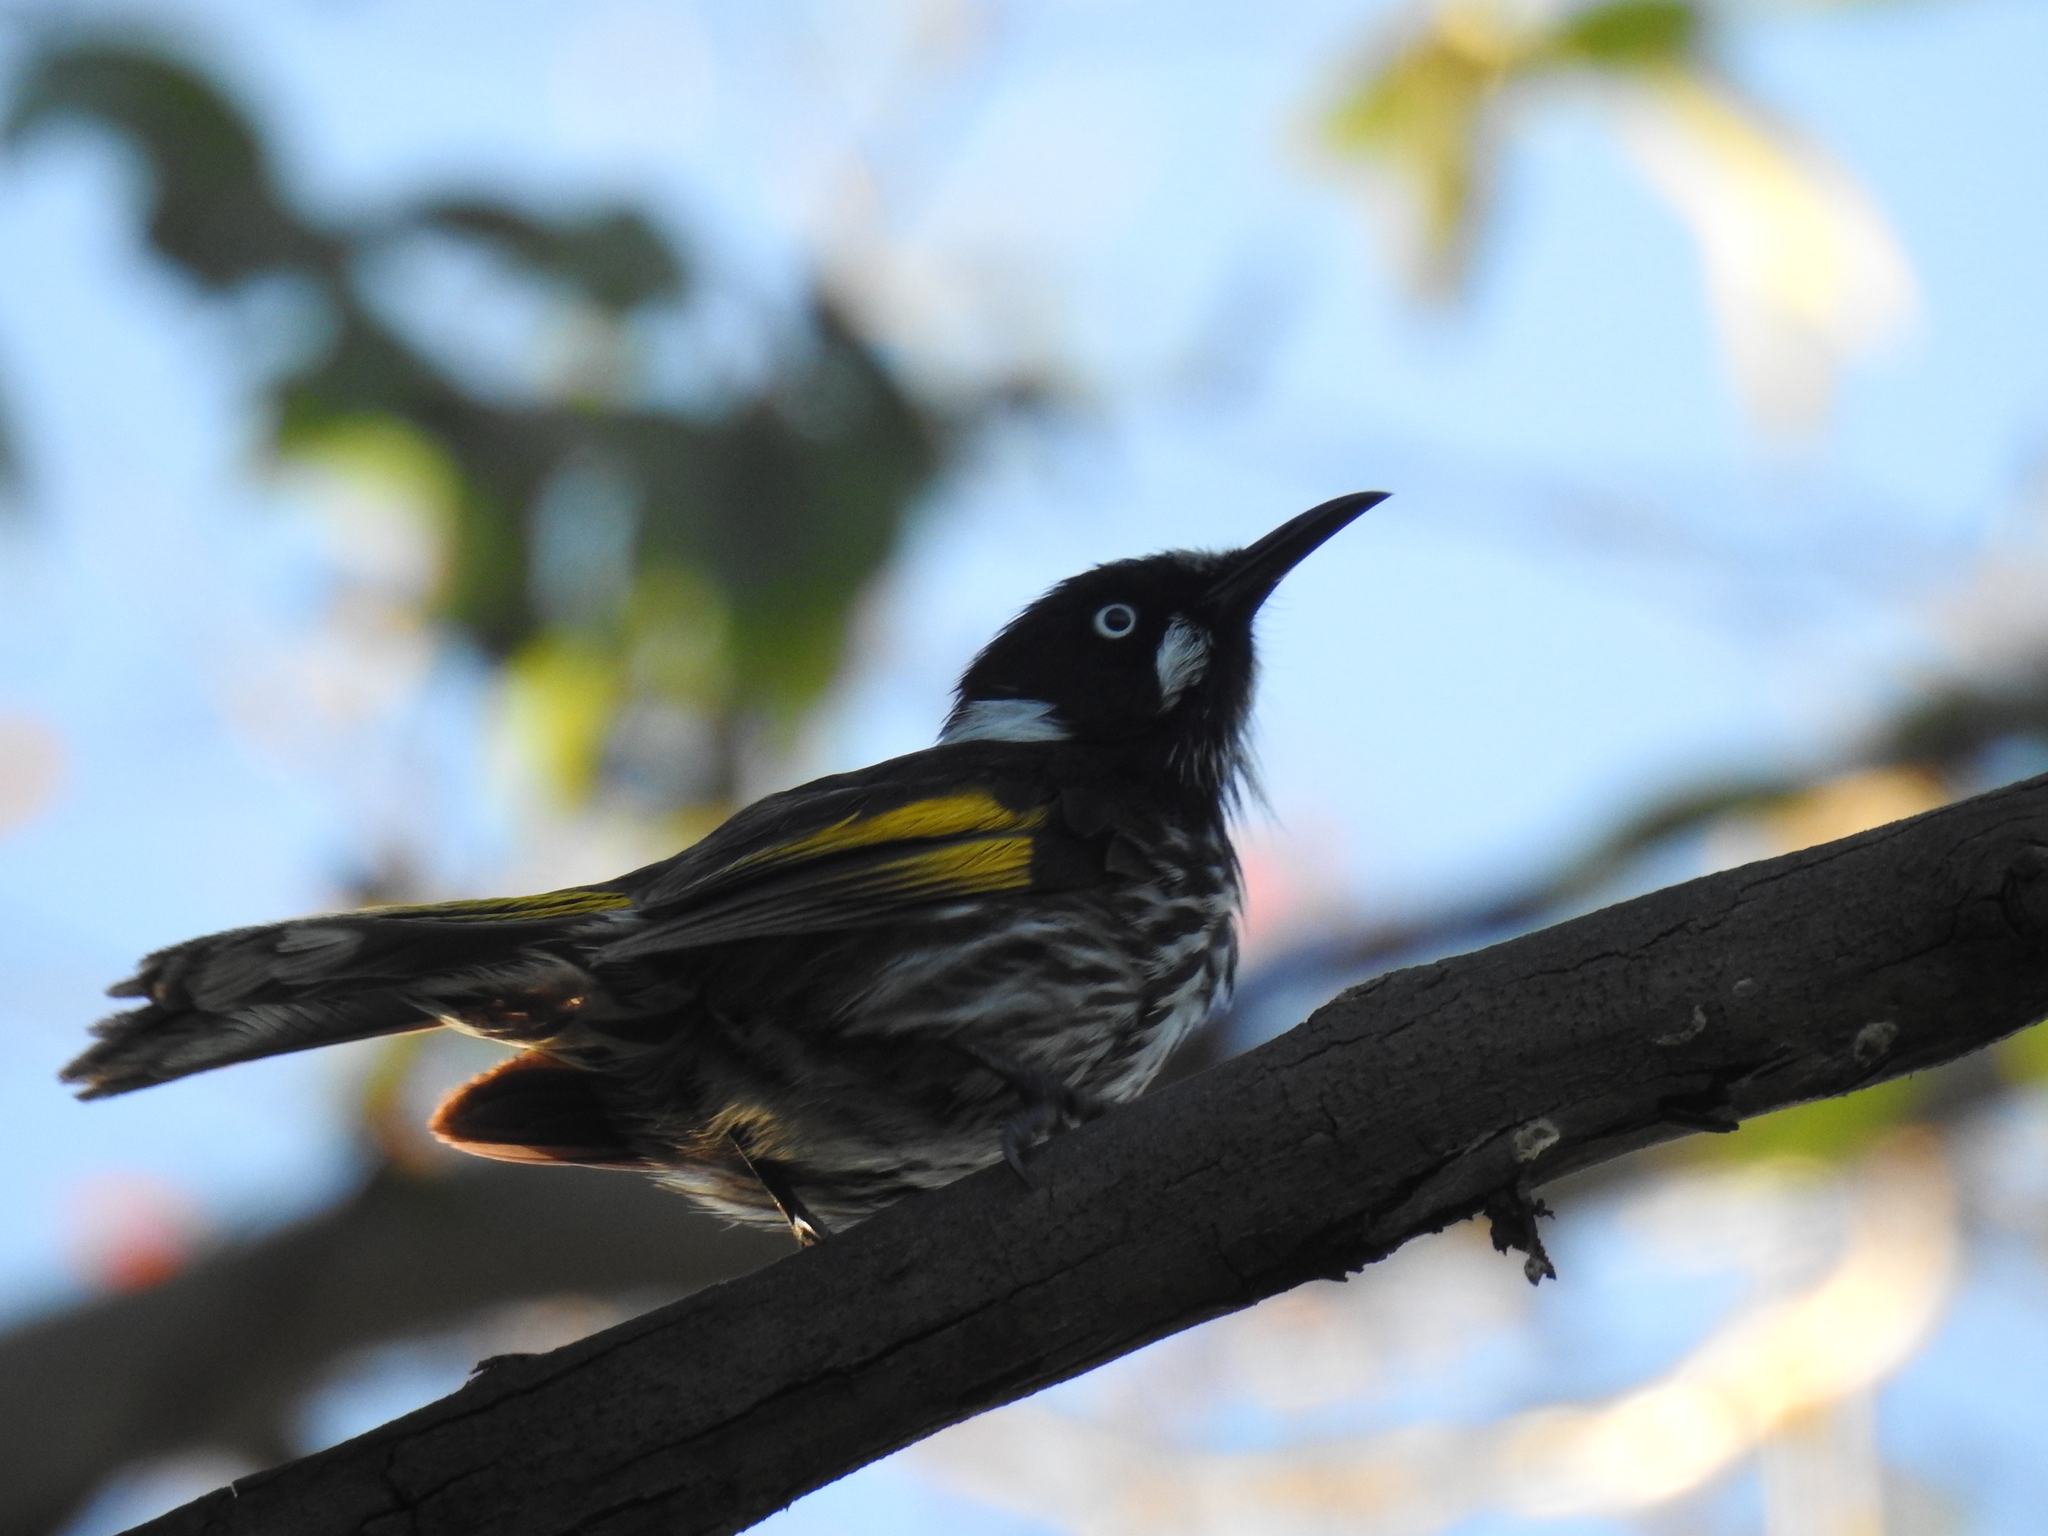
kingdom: Animalia
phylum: Chordata
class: Aves
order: Passeriformes
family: Meliphagidae
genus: Phylidonyris
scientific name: Phylidonyris novaehollandiae
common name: New holland honeyeater
